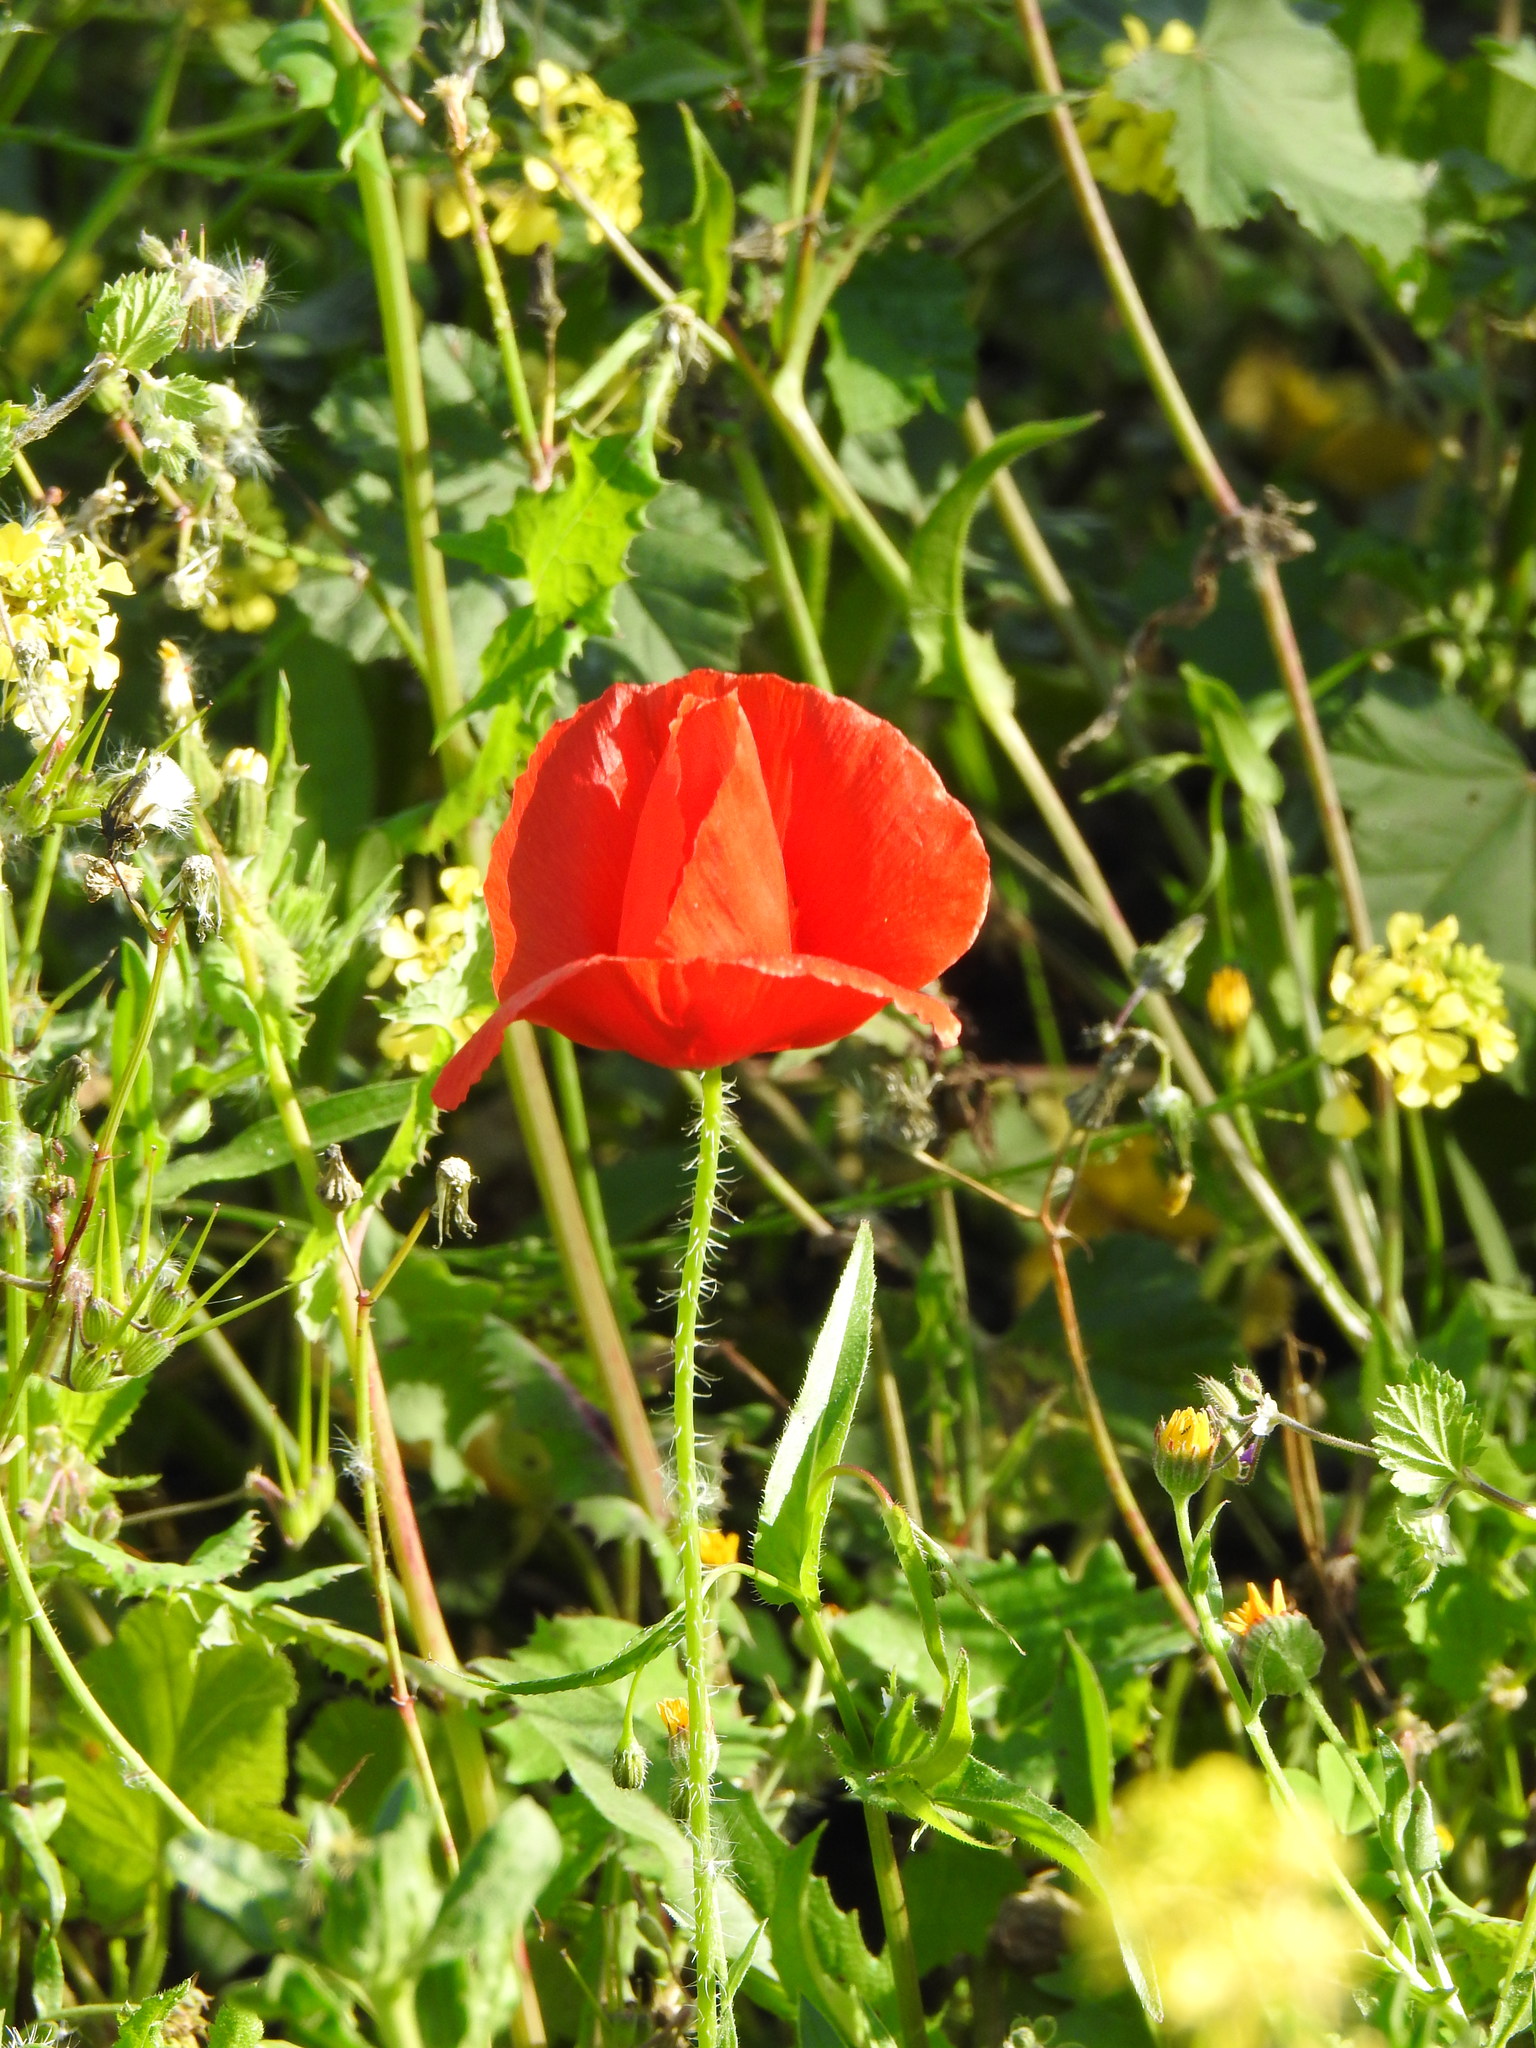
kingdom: Plantae
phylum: Tracheophyta
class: Magnoliopsida
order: Ranunculales
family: Papaveraceae
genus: Papaver
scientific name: Papaver rhoeas
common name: Corn poppy
